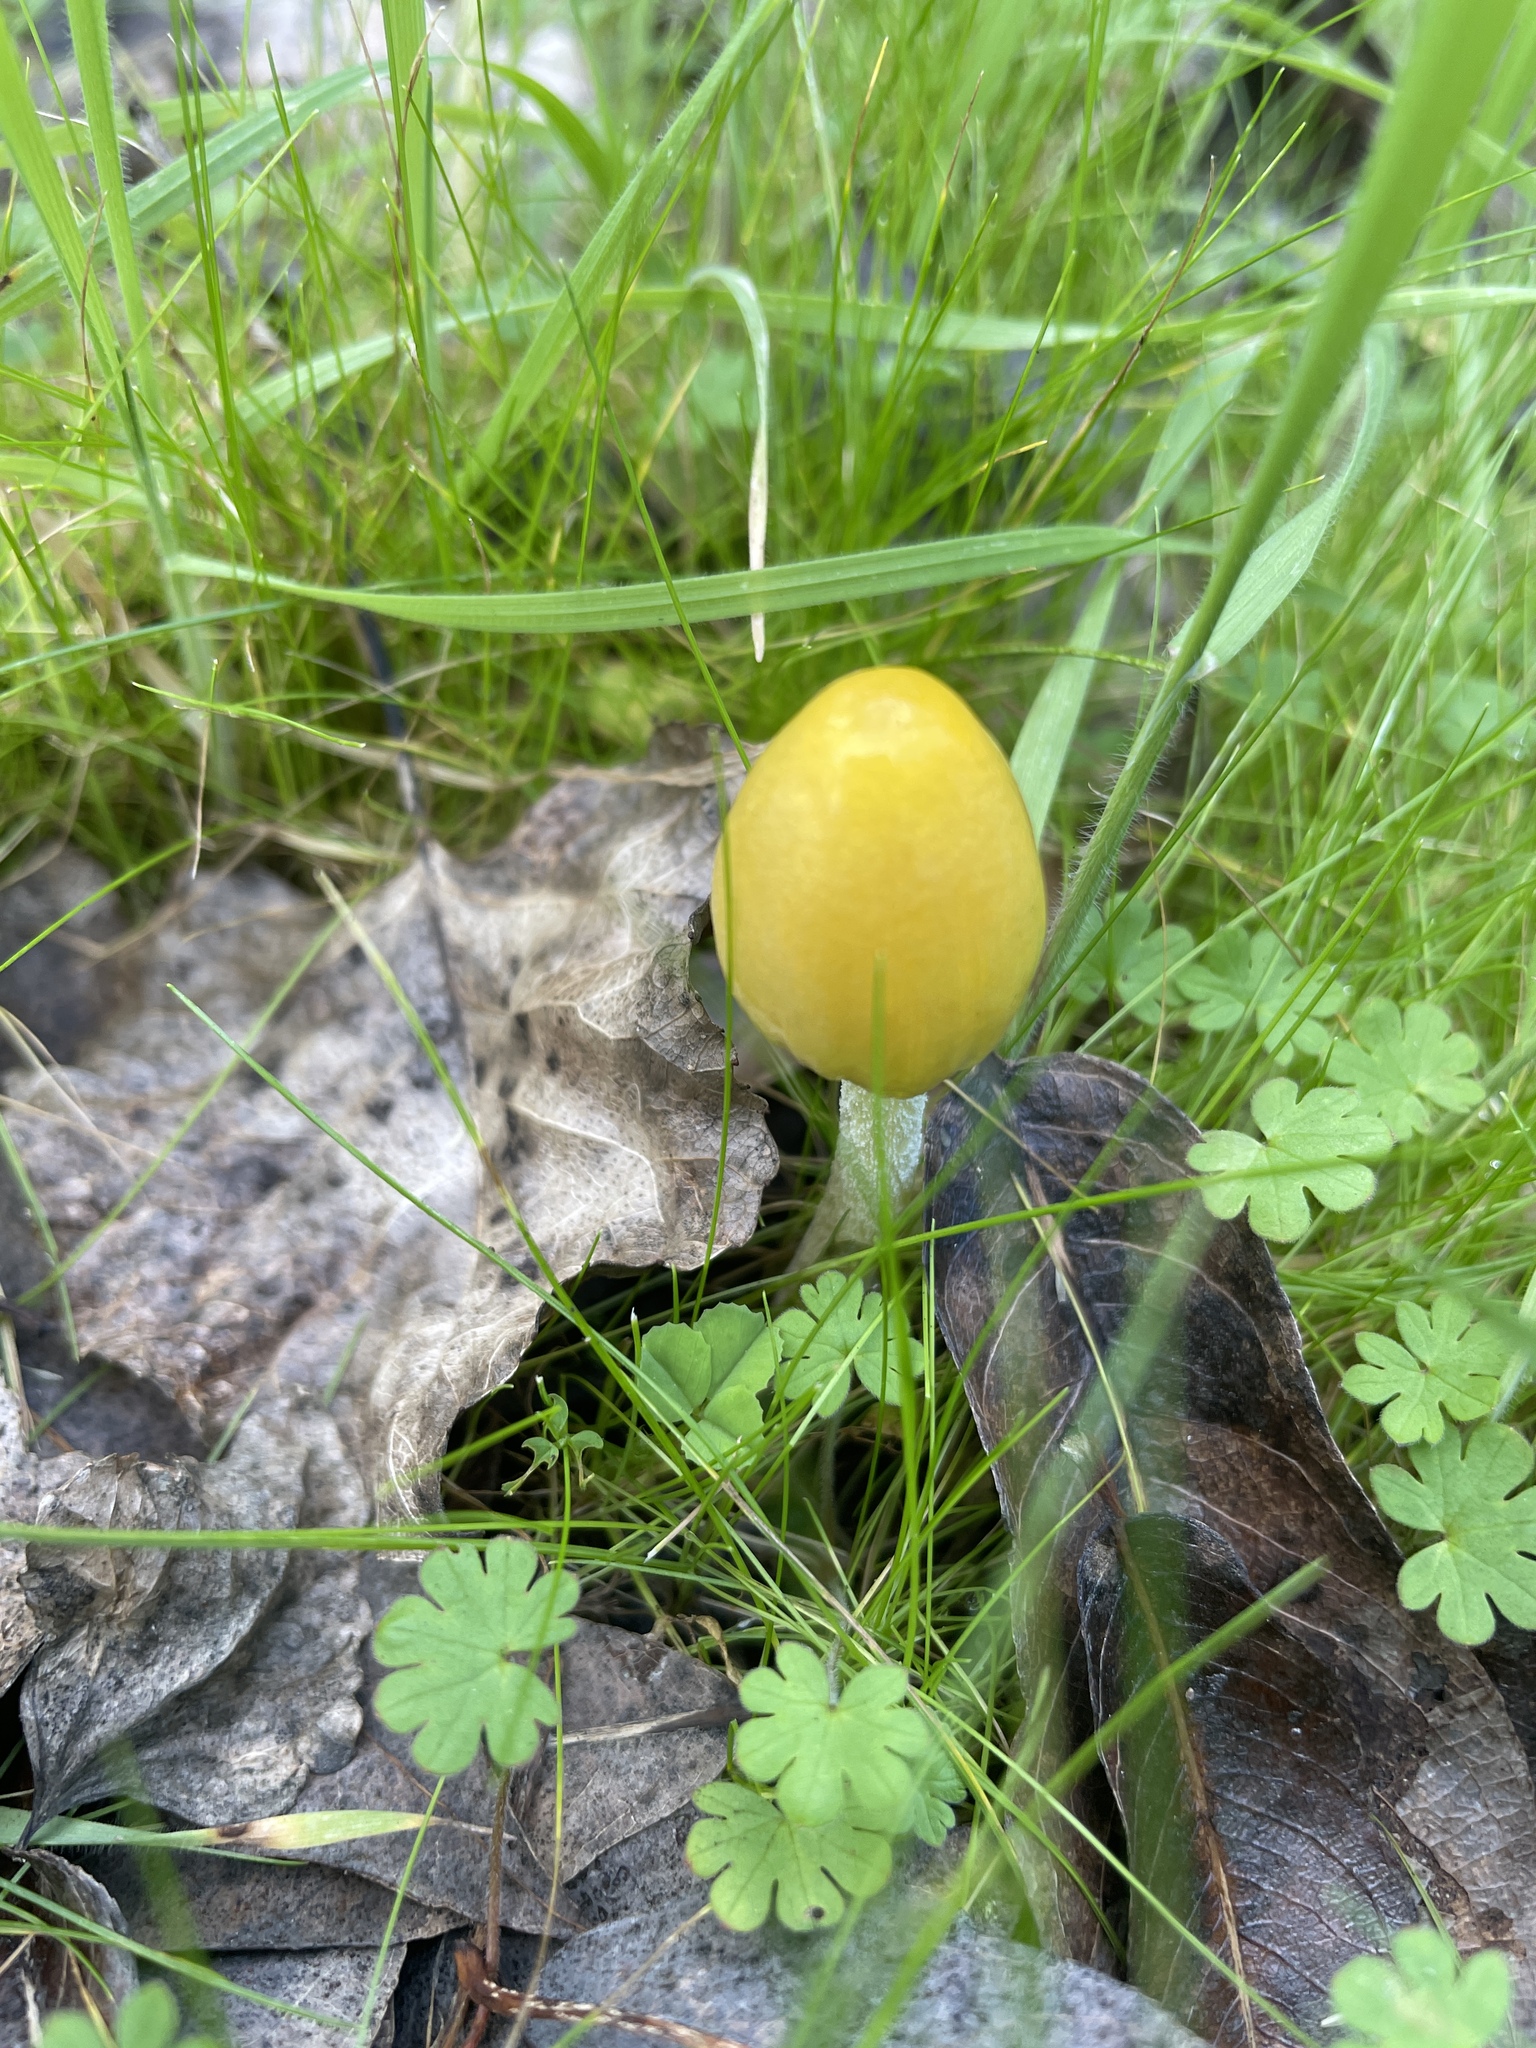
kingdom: Fungi
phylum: Basidiomycota
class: Agaricomycetes
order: Agaricales
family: Bolbitiaceae
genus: Bolbitius
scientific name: Bolbitius titubans
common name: Yellow fieldcap
